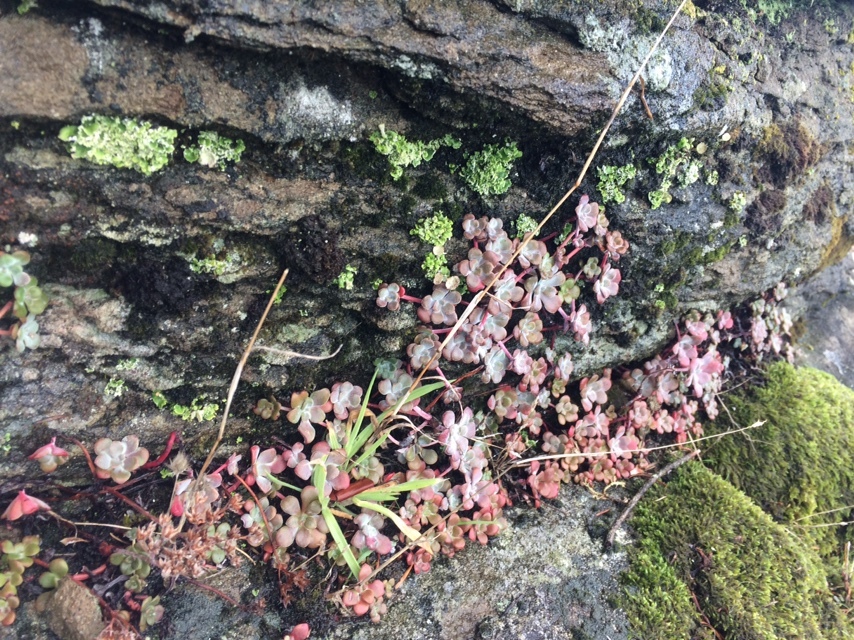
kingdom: Plantae
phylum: Tracheophyta
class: Magnoliopsida
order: Saxifragales
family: Crassulaceae
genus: Sedum
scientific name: Sedum spathulifolium
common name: Colorado stonecrop
